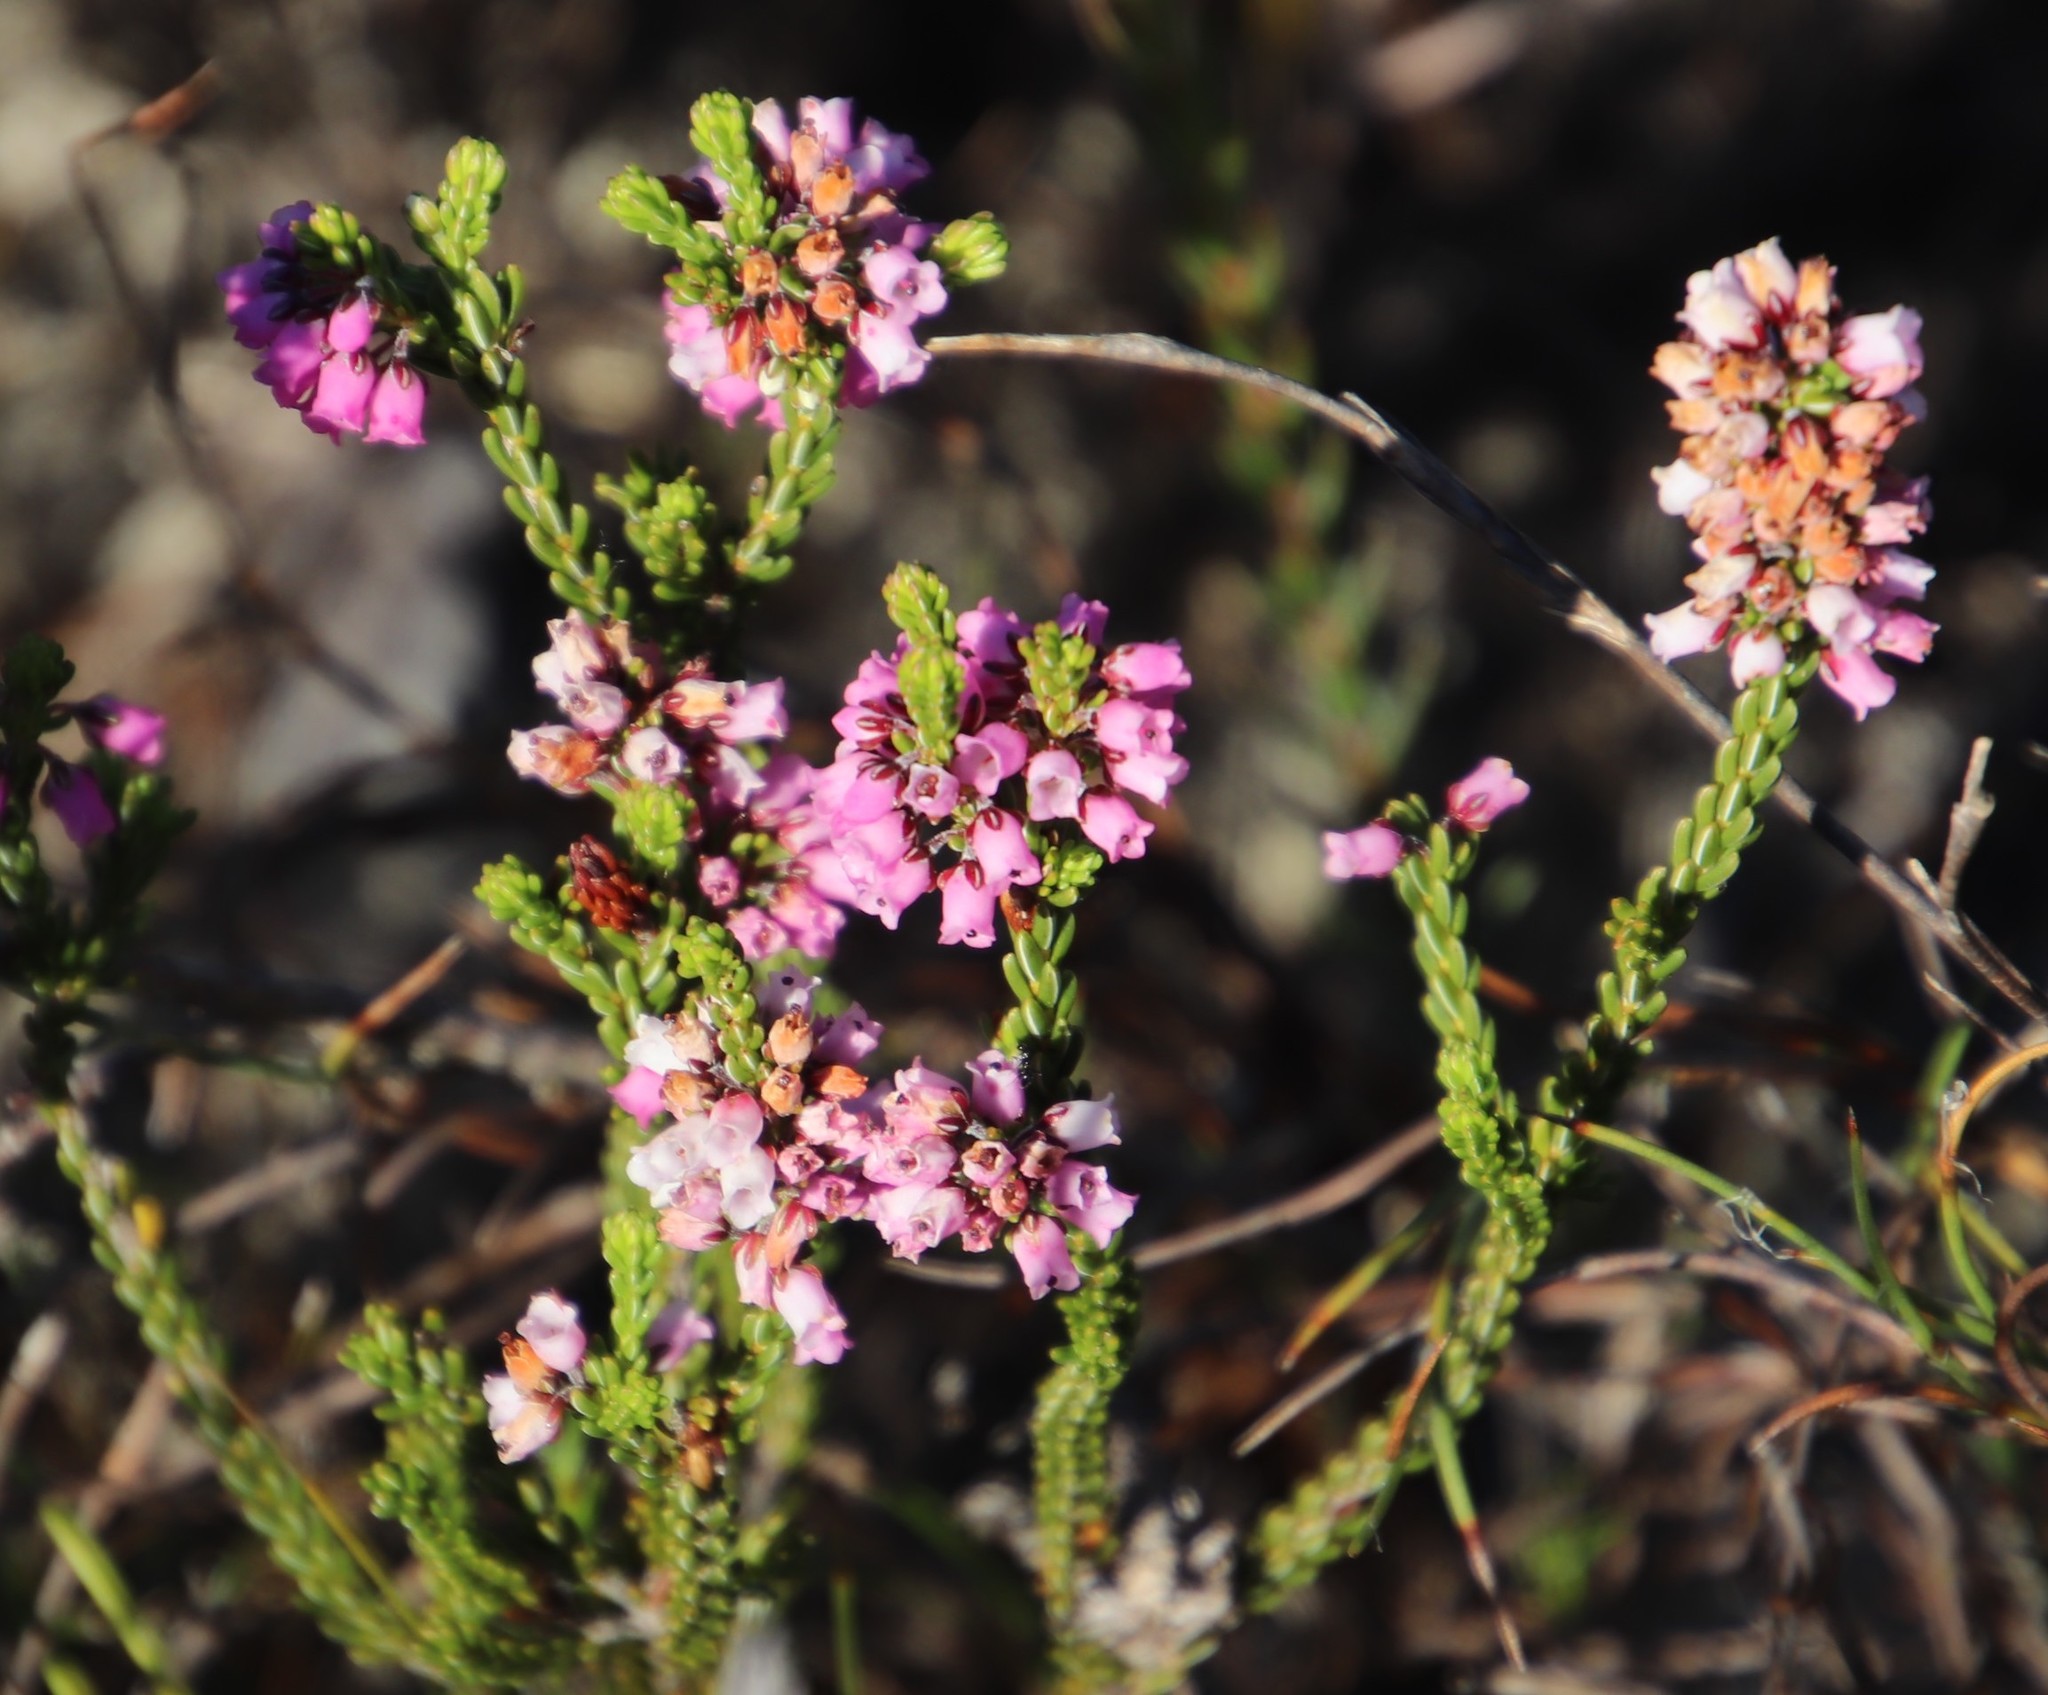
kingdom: Plantae
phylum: Tracheophyta
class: Magnoliopsida
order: Ericales
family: Ericaceae
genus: Erica
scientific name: Erica pulchella
